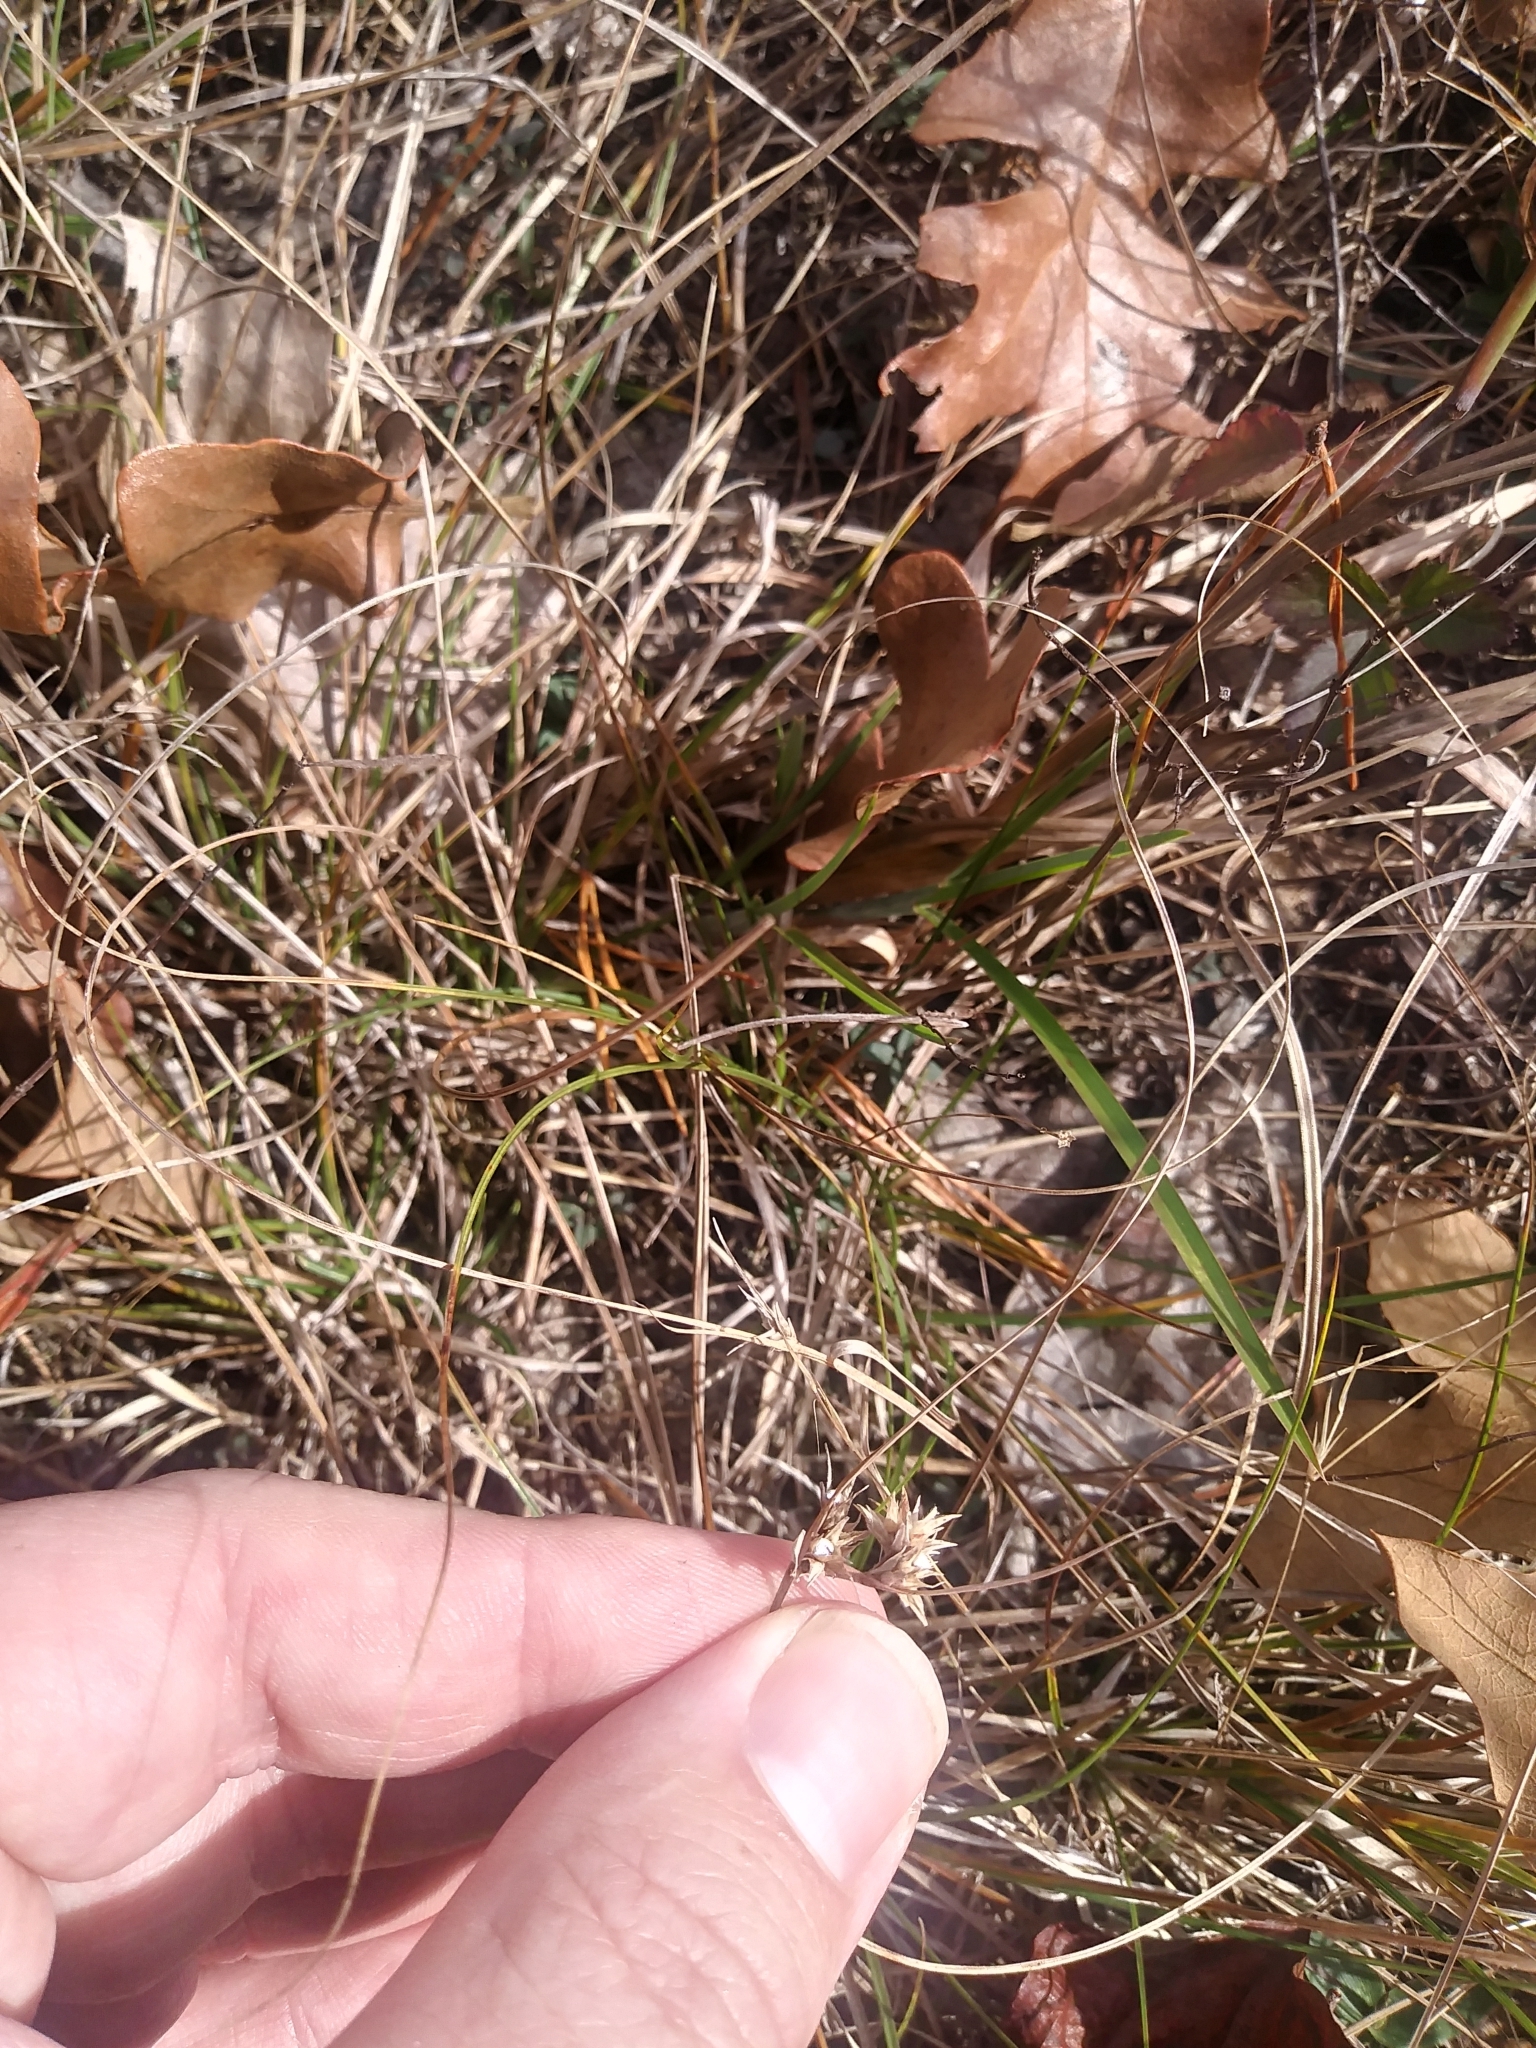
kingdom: Plantae
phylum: Tracheophyta
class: Liliopsida
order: Poales
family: Cyperaceae
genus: Scleria
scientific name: Scleria pauciflora
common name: Few-flowered nutrush
